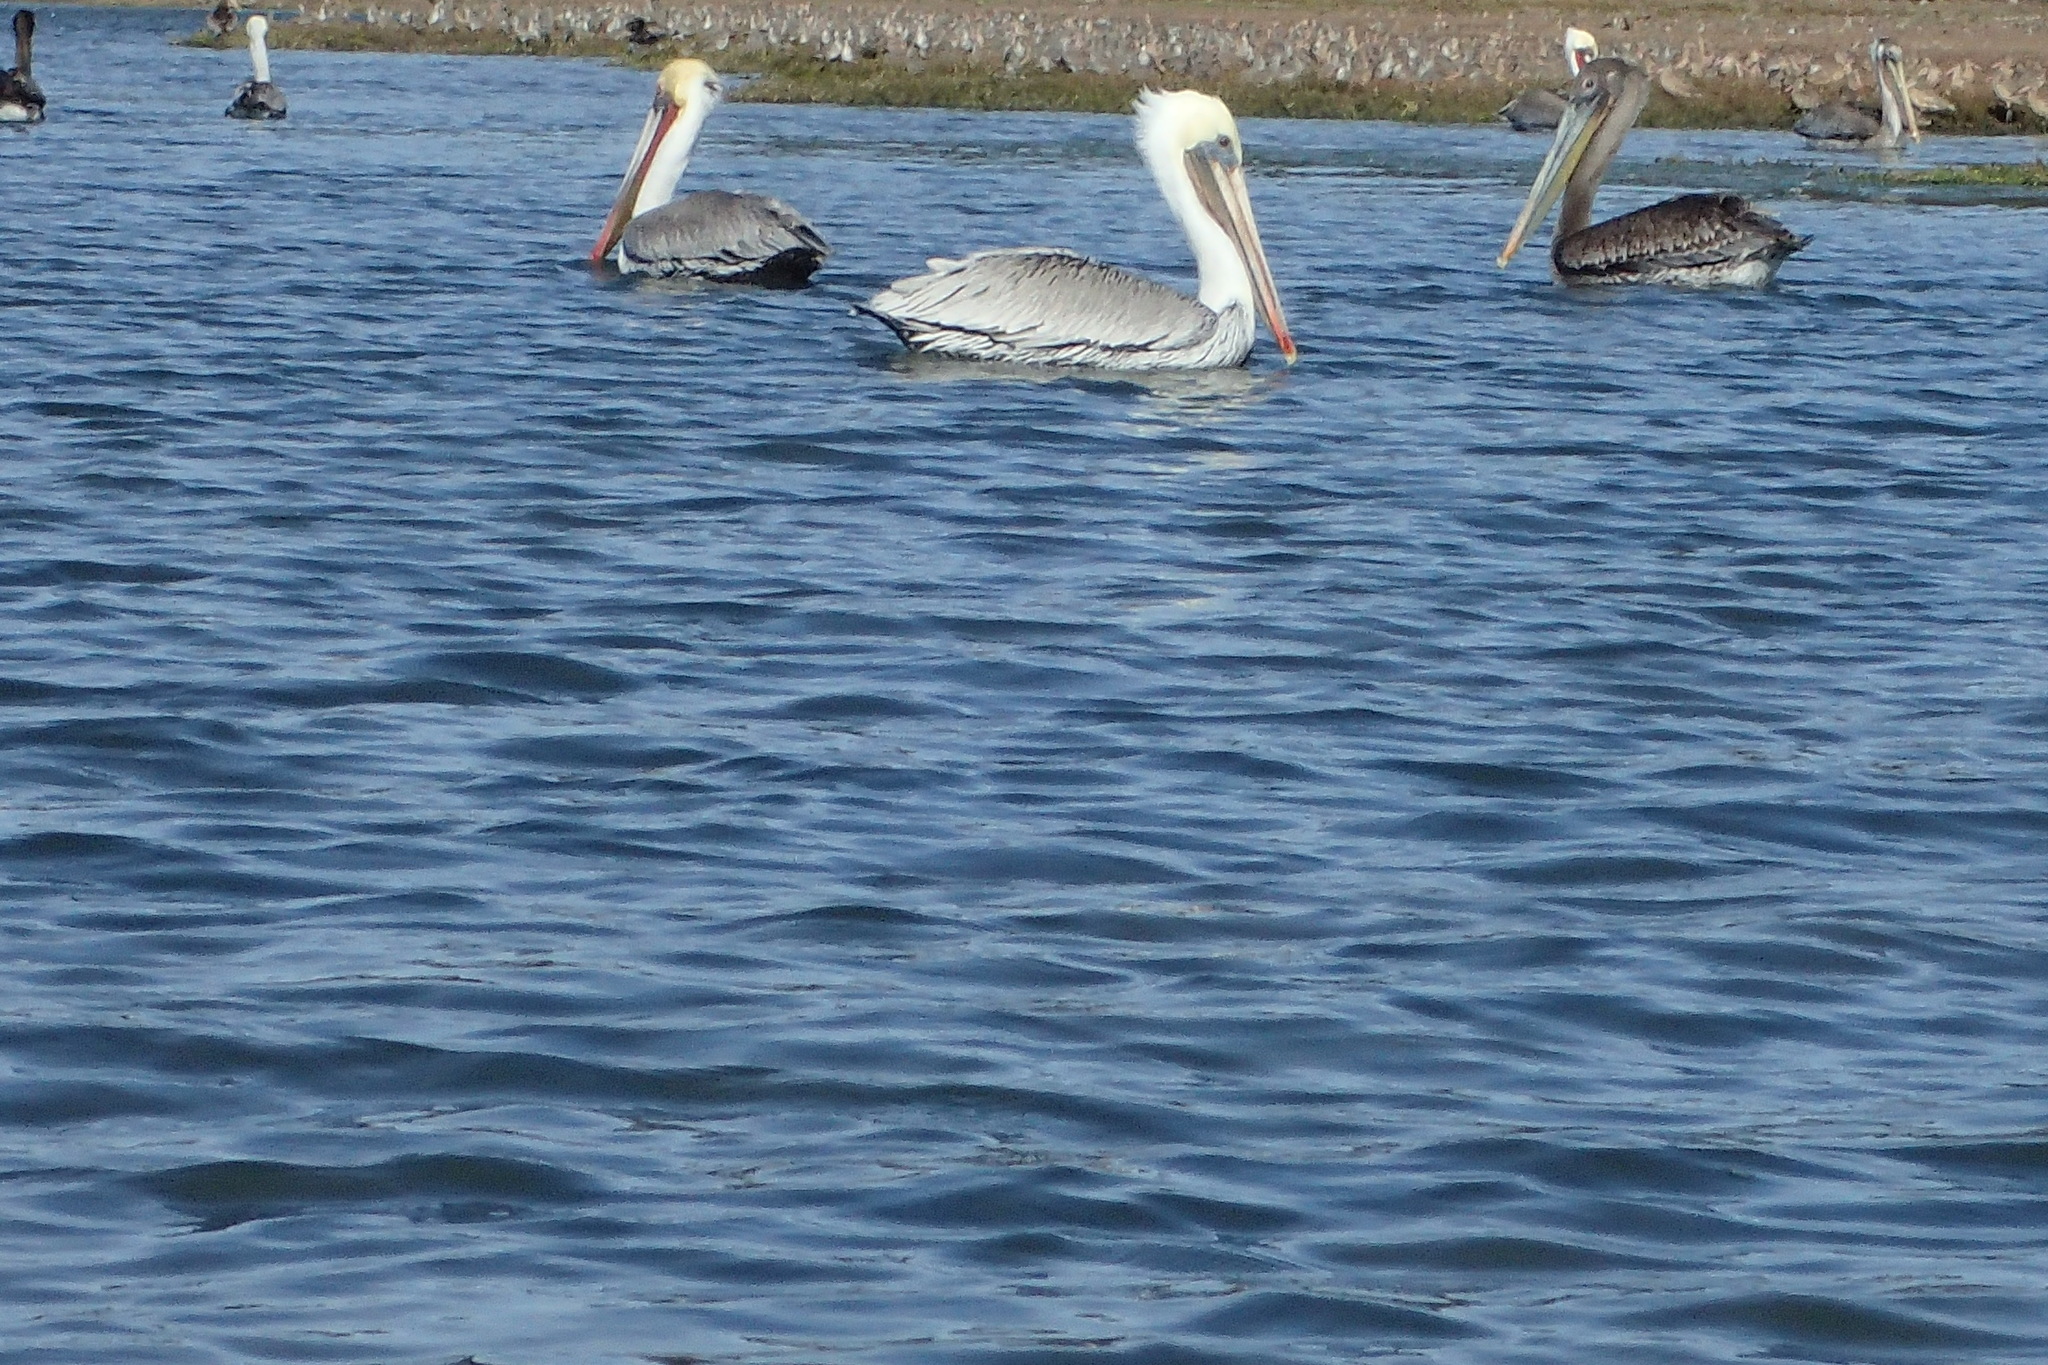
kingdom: Animalia
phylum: Chordata
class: Aves
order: Pelecaniformes
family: Pelecanidae
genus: Pelecanus
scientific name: Pelecanus occidentalis
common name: Brown pelican
